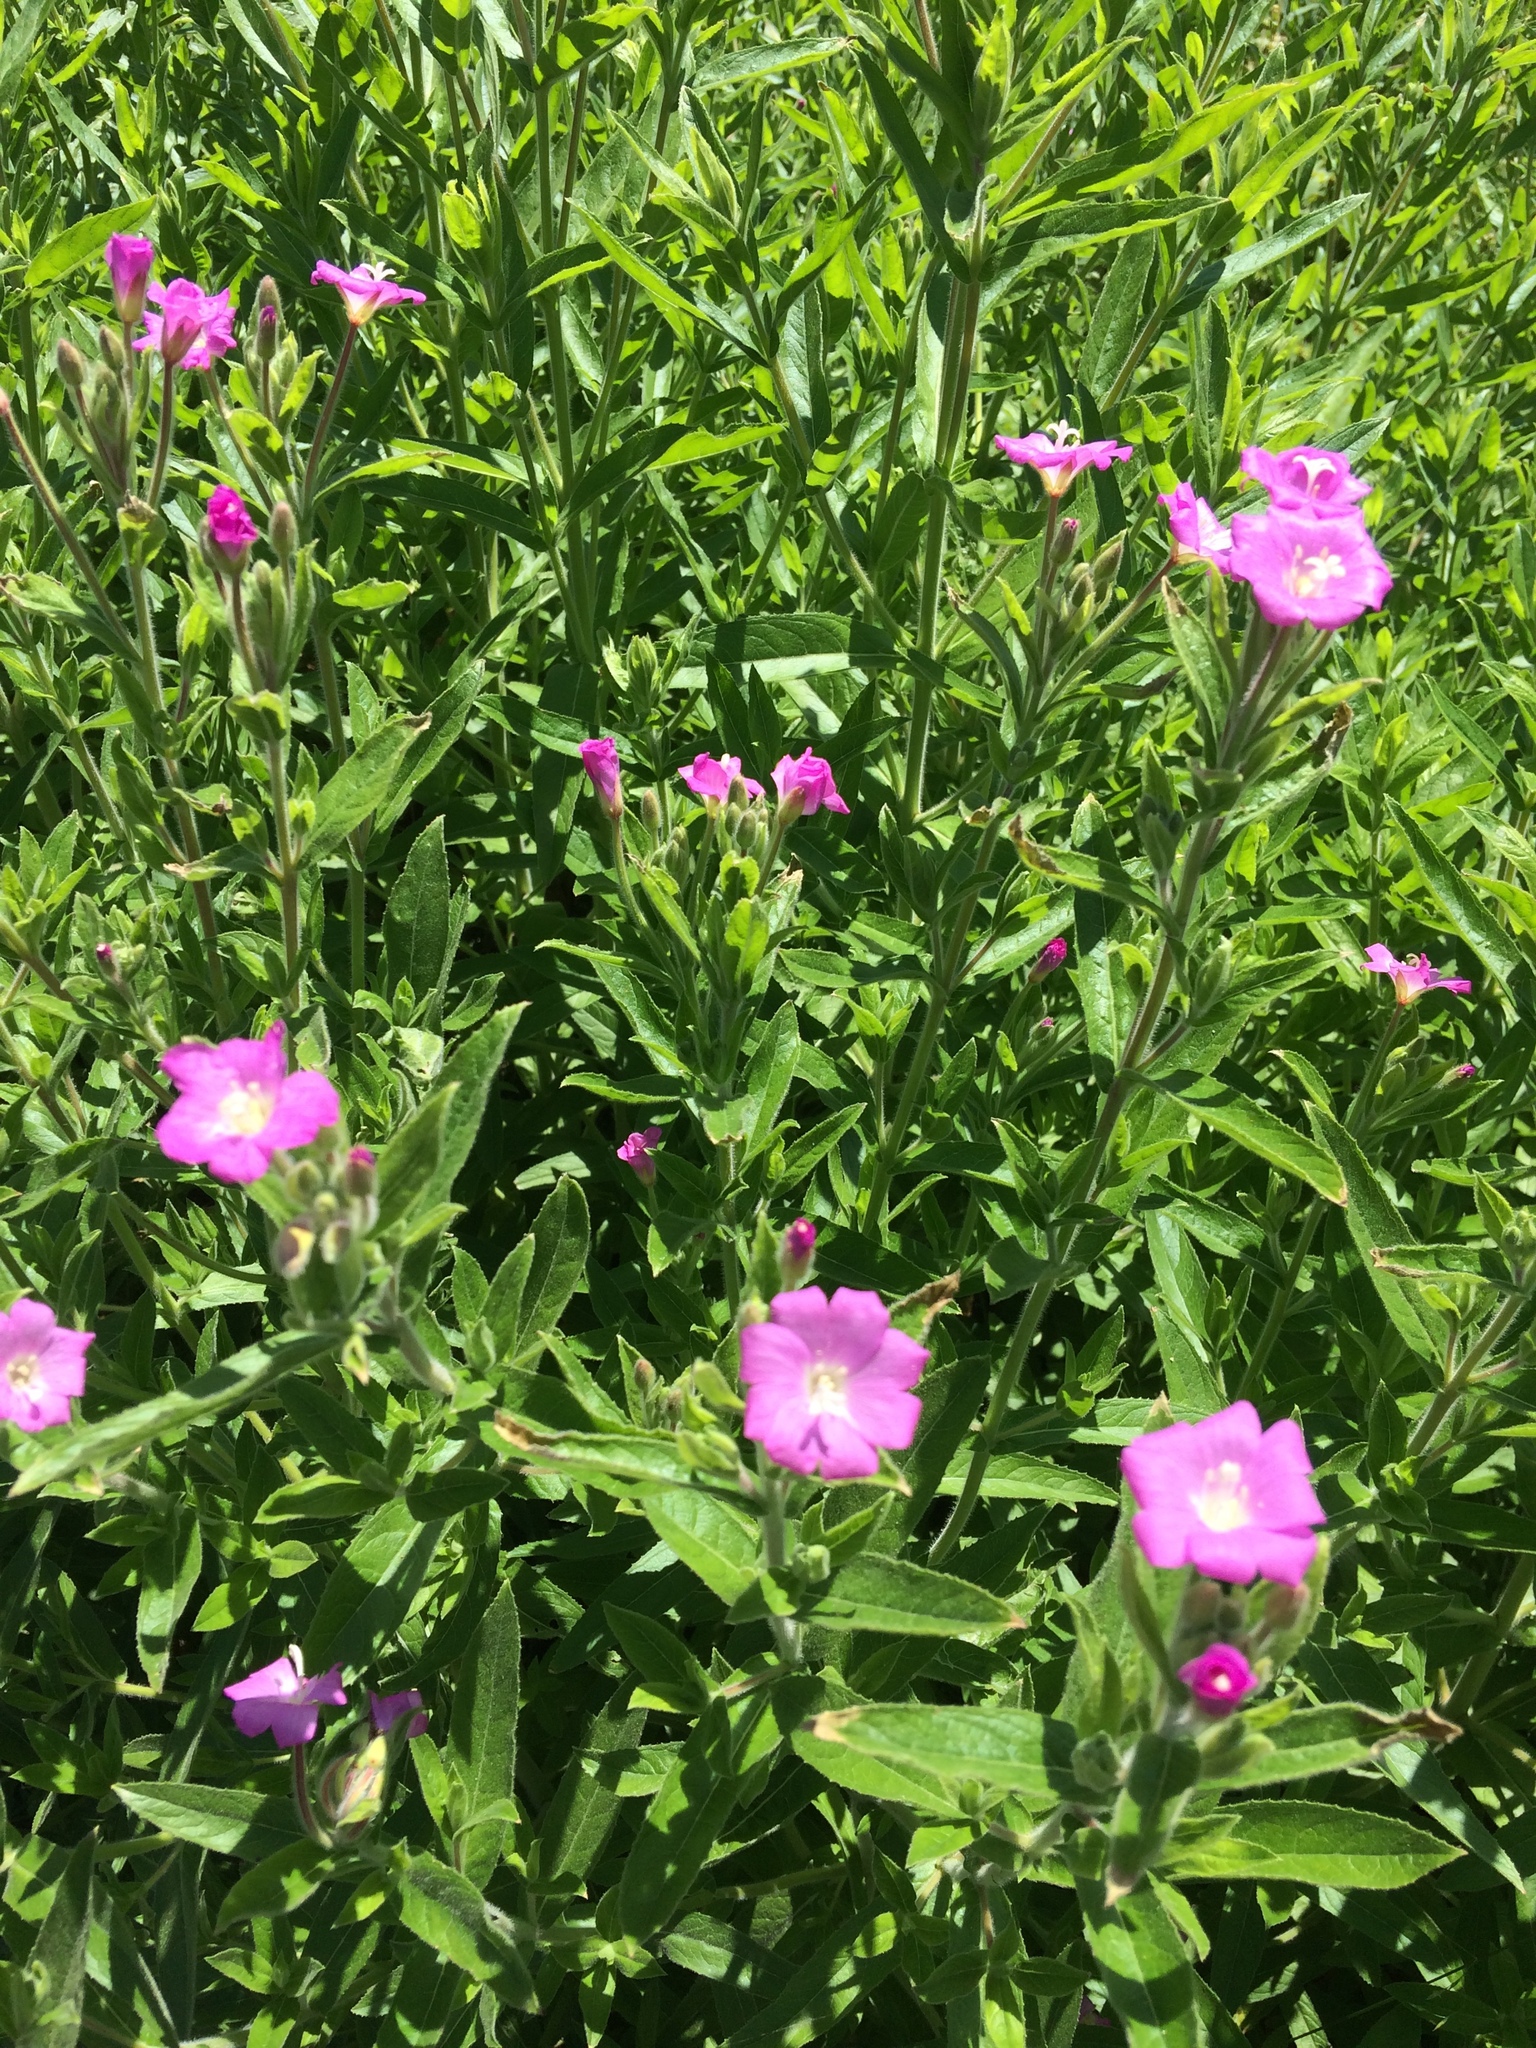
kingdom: Plantae
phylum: Tracheophyta
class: Magnoliopsida
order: Myrtales
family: Onagraceae
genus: Epilobium
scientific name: Epilobium hirsutum
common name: Great willowherb
